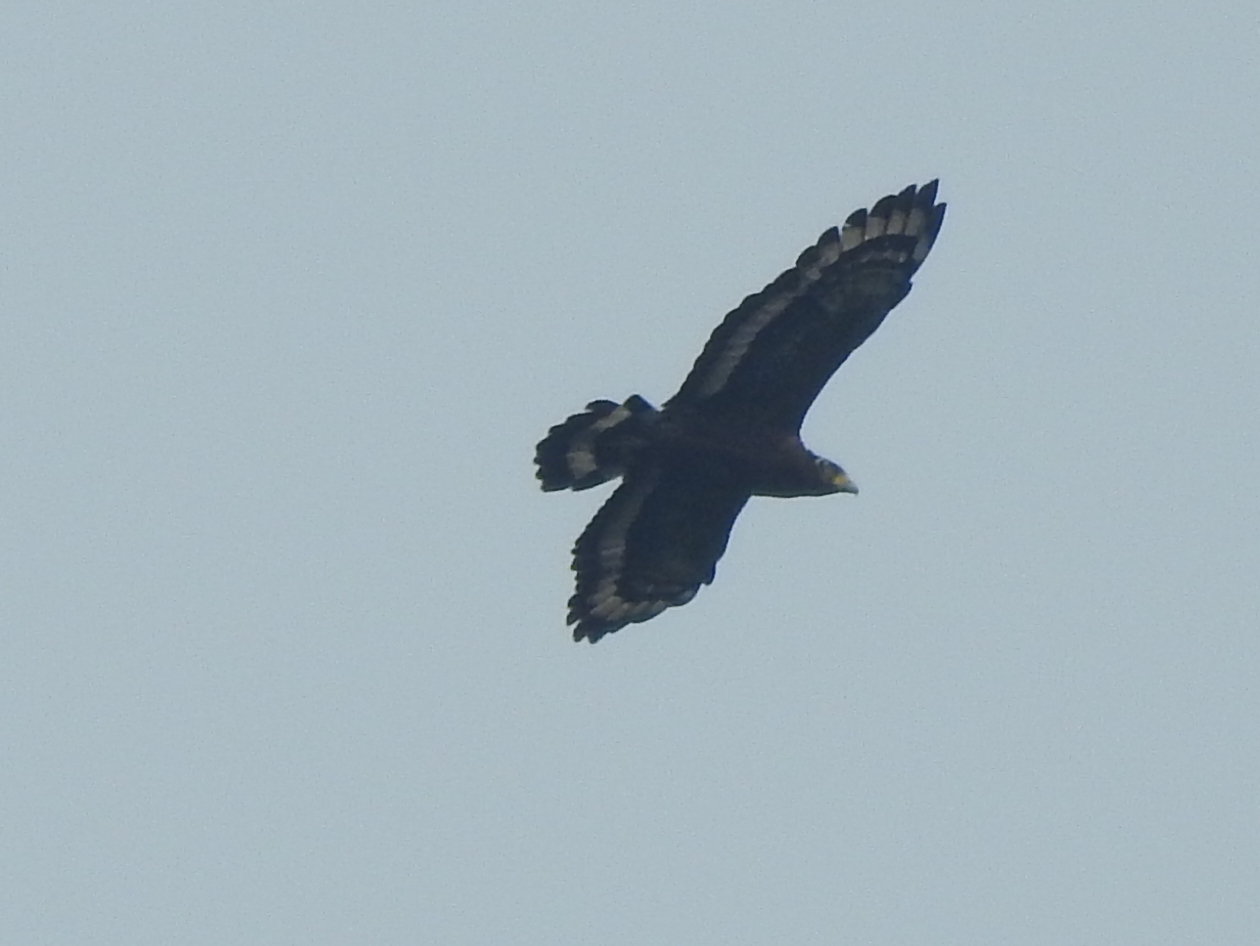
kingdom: Animalia
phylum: Chordata
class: Aves
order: Accipitriformes
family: Accipitridae
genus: Spilornis
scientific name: Spilornis cheela
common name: Crested serpent eagle
